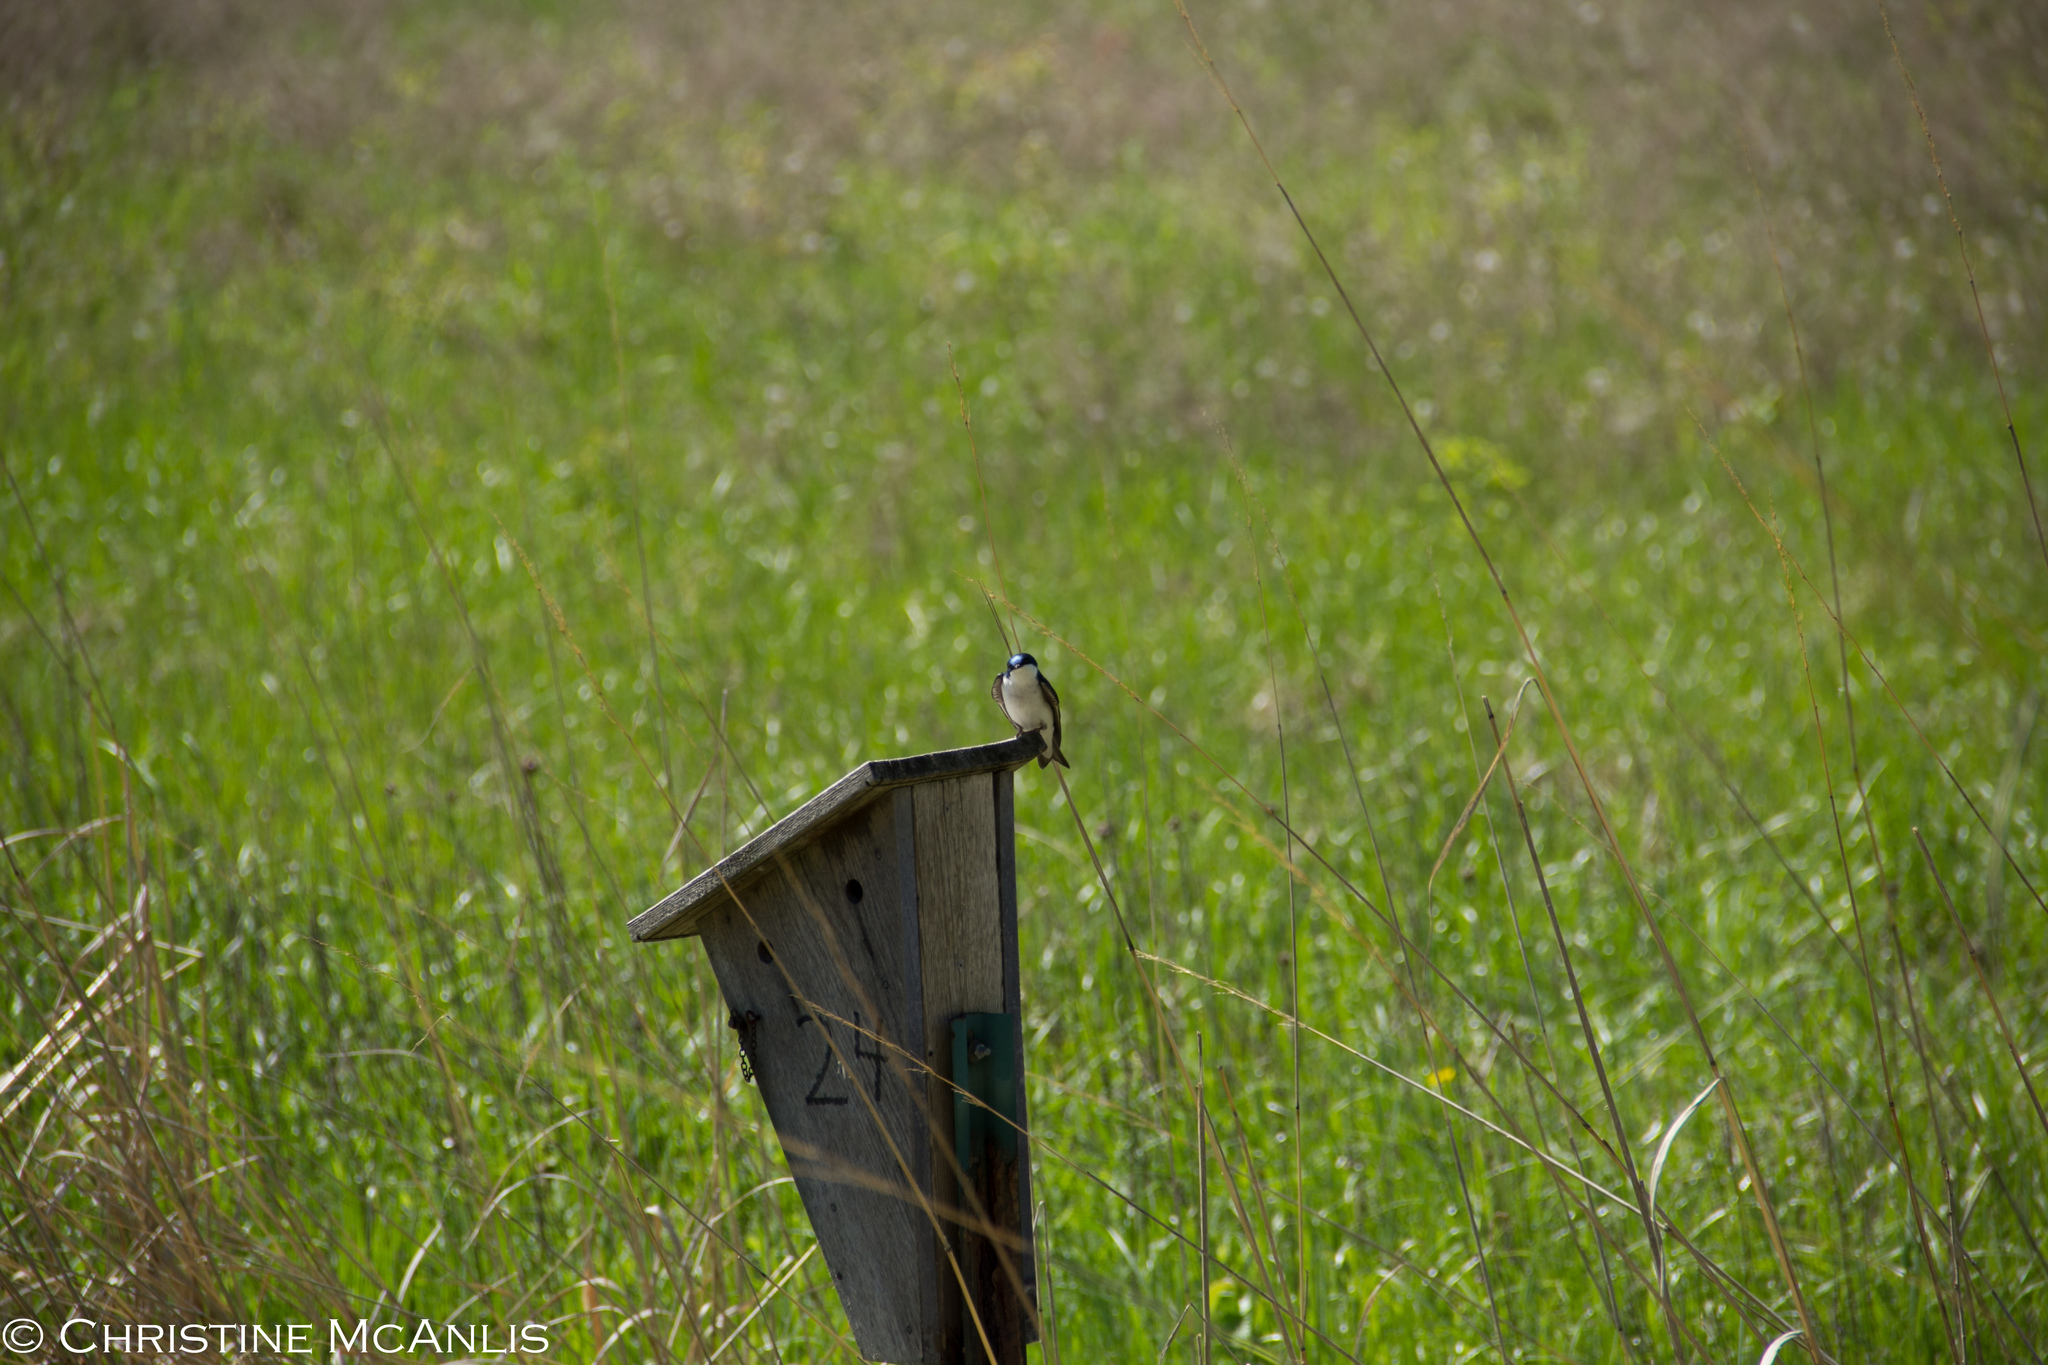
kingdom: Animalia
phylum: Chordata
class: Aves
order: Passeriformes
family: Hirundinidae
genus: Tachycineta
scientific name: Tachycineta bicolor
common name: Tree swallow
